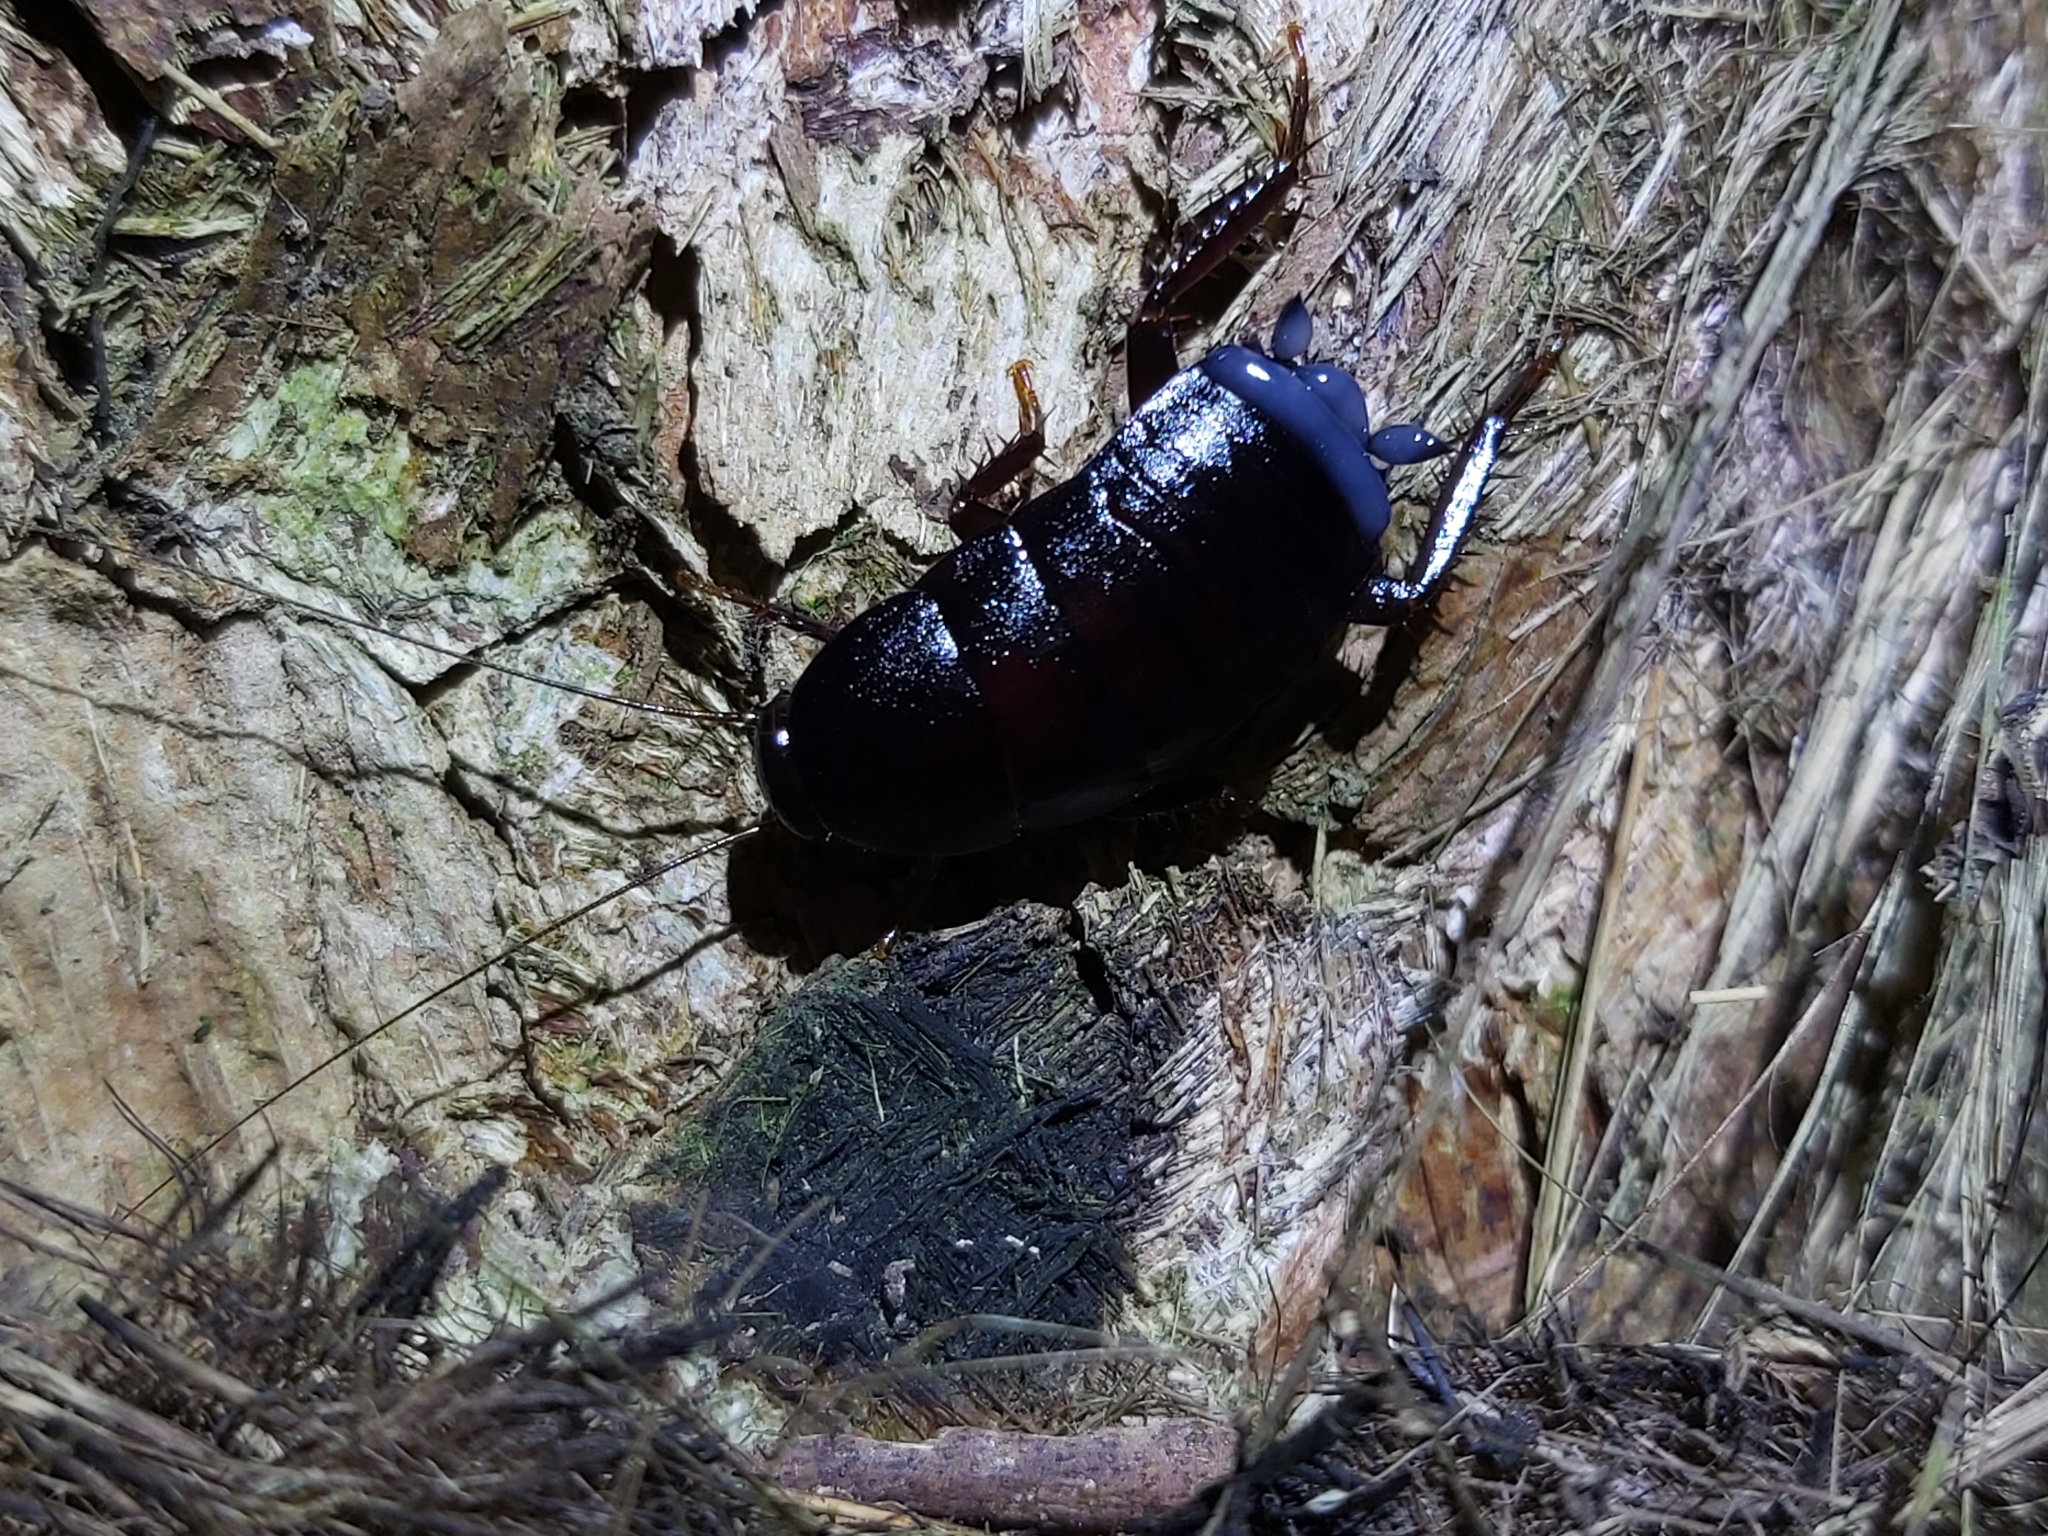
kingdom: Animalia
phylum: Arthropoda
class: Insecta
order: Blattodea
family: Blattidae
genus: Celatoblatta
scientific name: Celatoblatta
